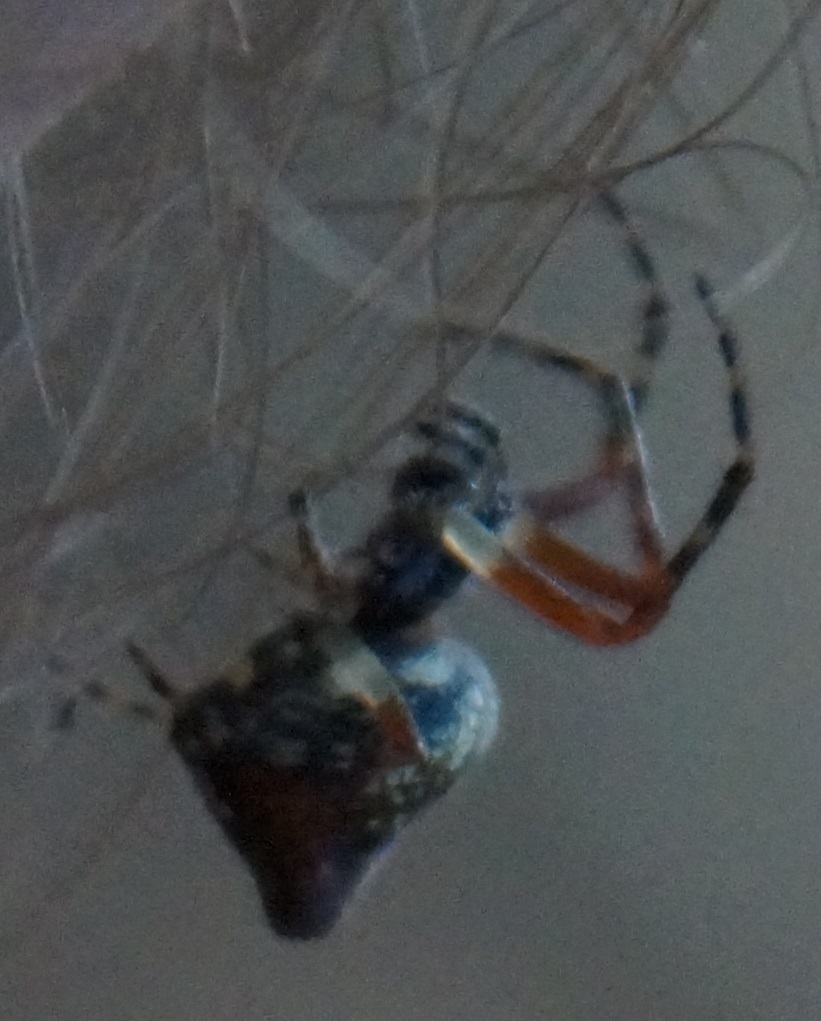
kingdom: Animalia
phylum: Arthropoda
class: Arachnida
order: Araneae
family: Araneidae
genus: Cyclosa
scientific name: Cyclosa conica
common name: Conical trashline orbweaver
